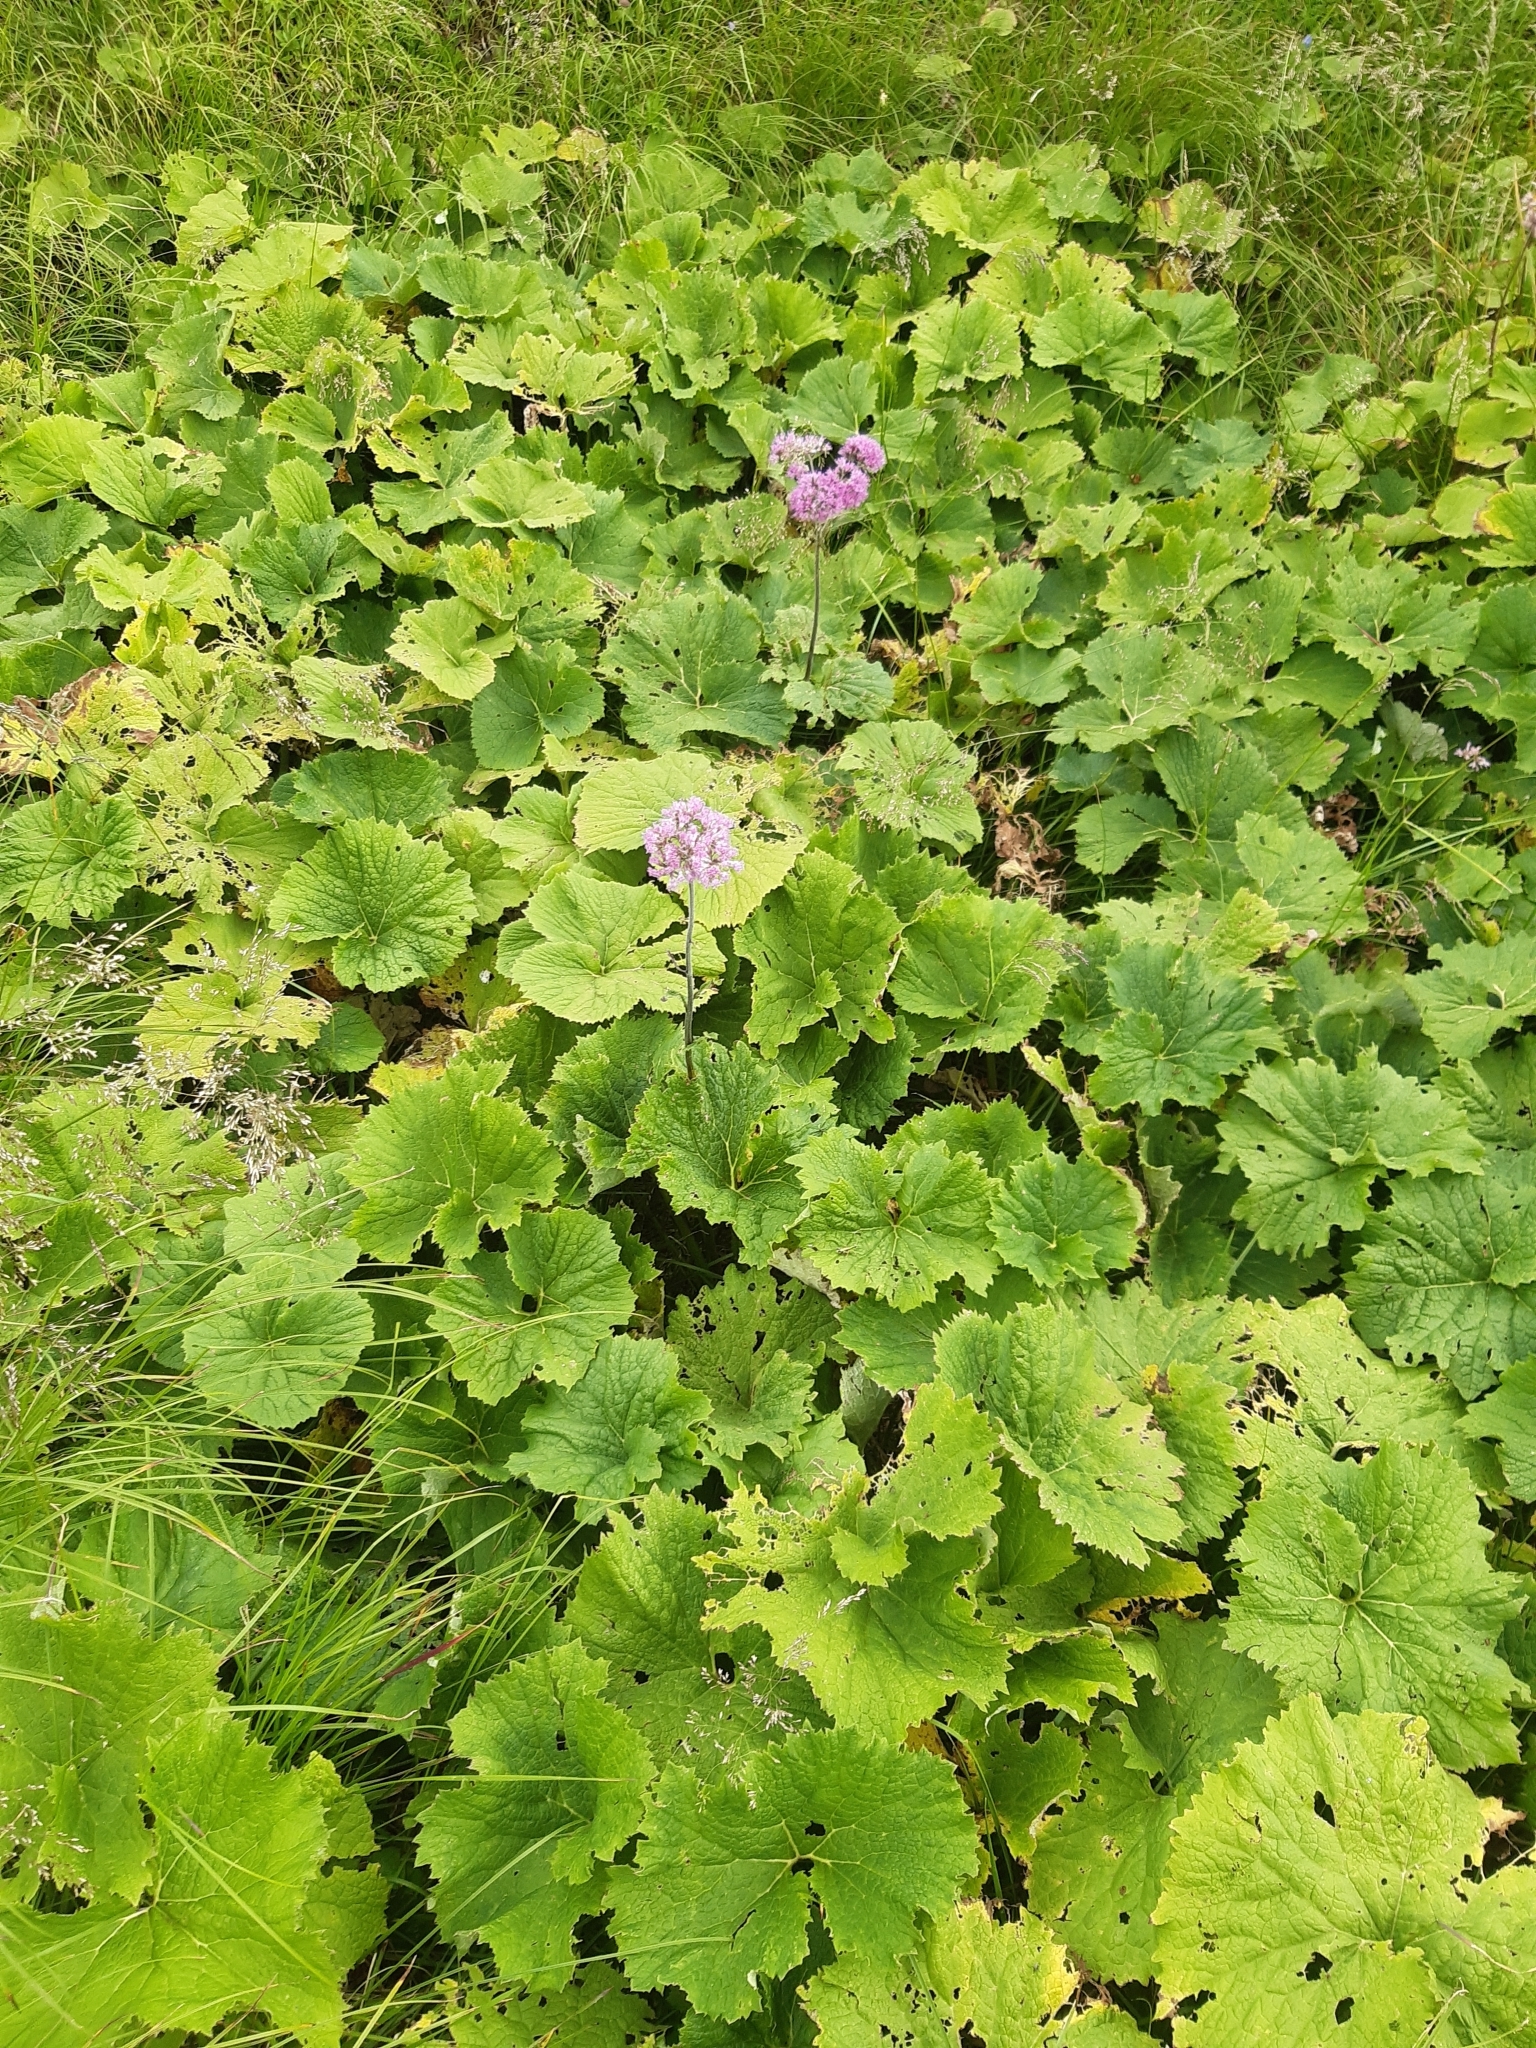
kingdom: Plantae
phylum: Tracheophyta
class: Magnoliopsida
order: Asterales
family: Asteraceae
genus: Adenostyles
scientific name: Adenostyles alliariae
